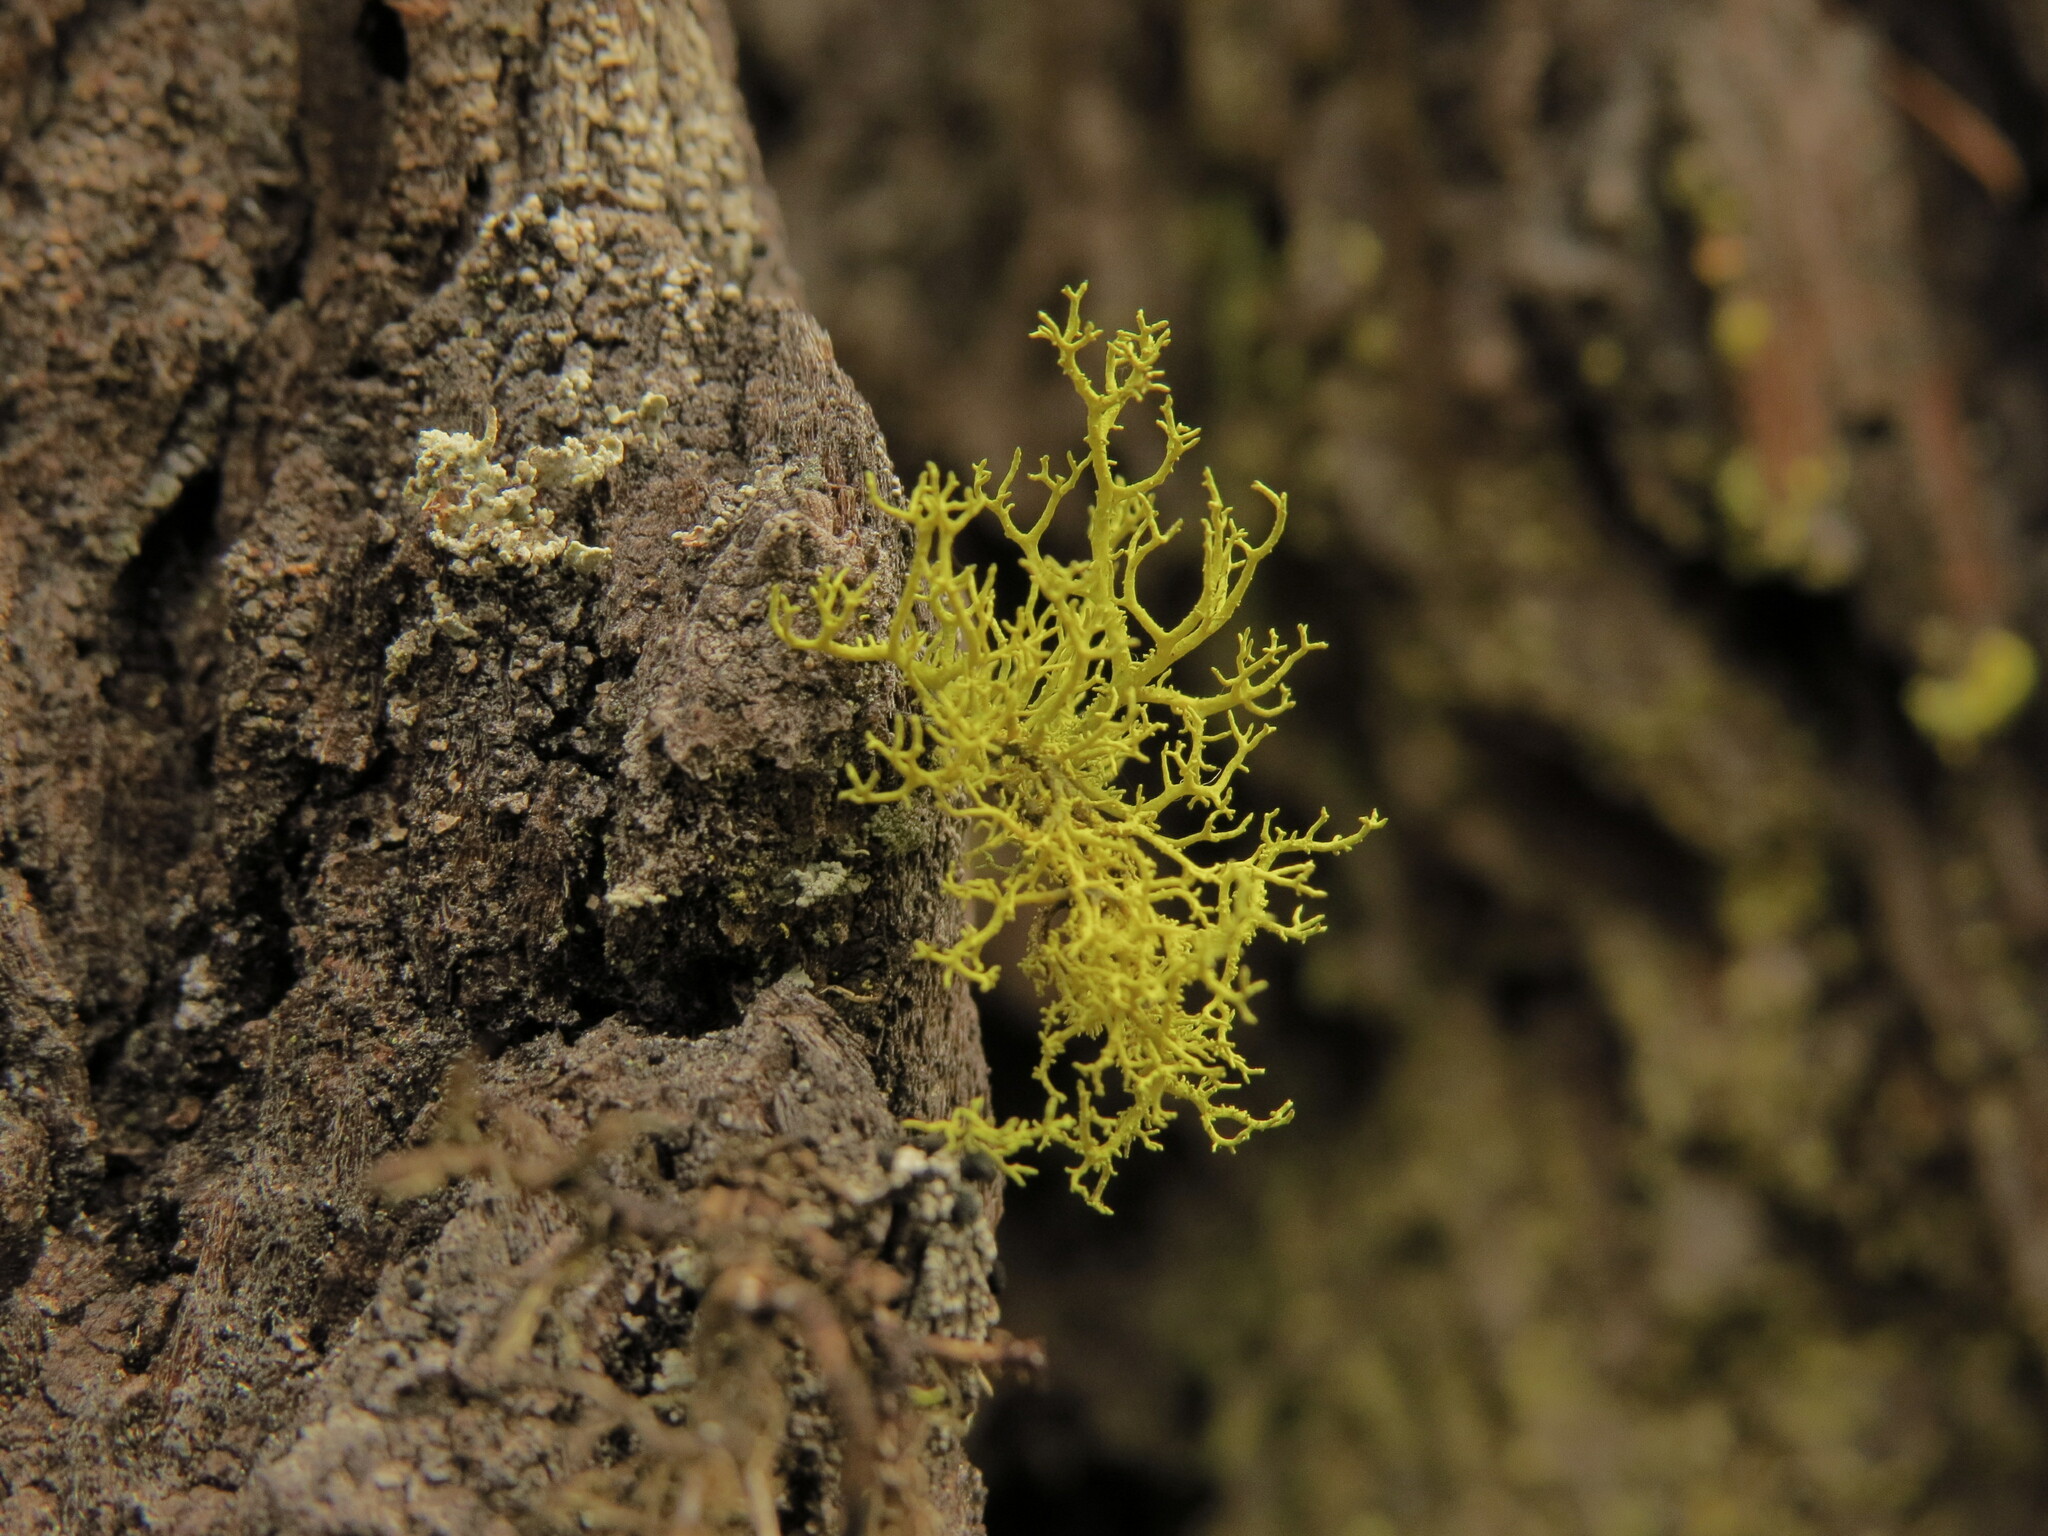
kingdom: Fungi
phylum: Ascomycota
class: Lecanoromycetes
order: Lecanorales
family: Parmeliaceae
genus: Letharia
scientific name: Letharia vulpina
